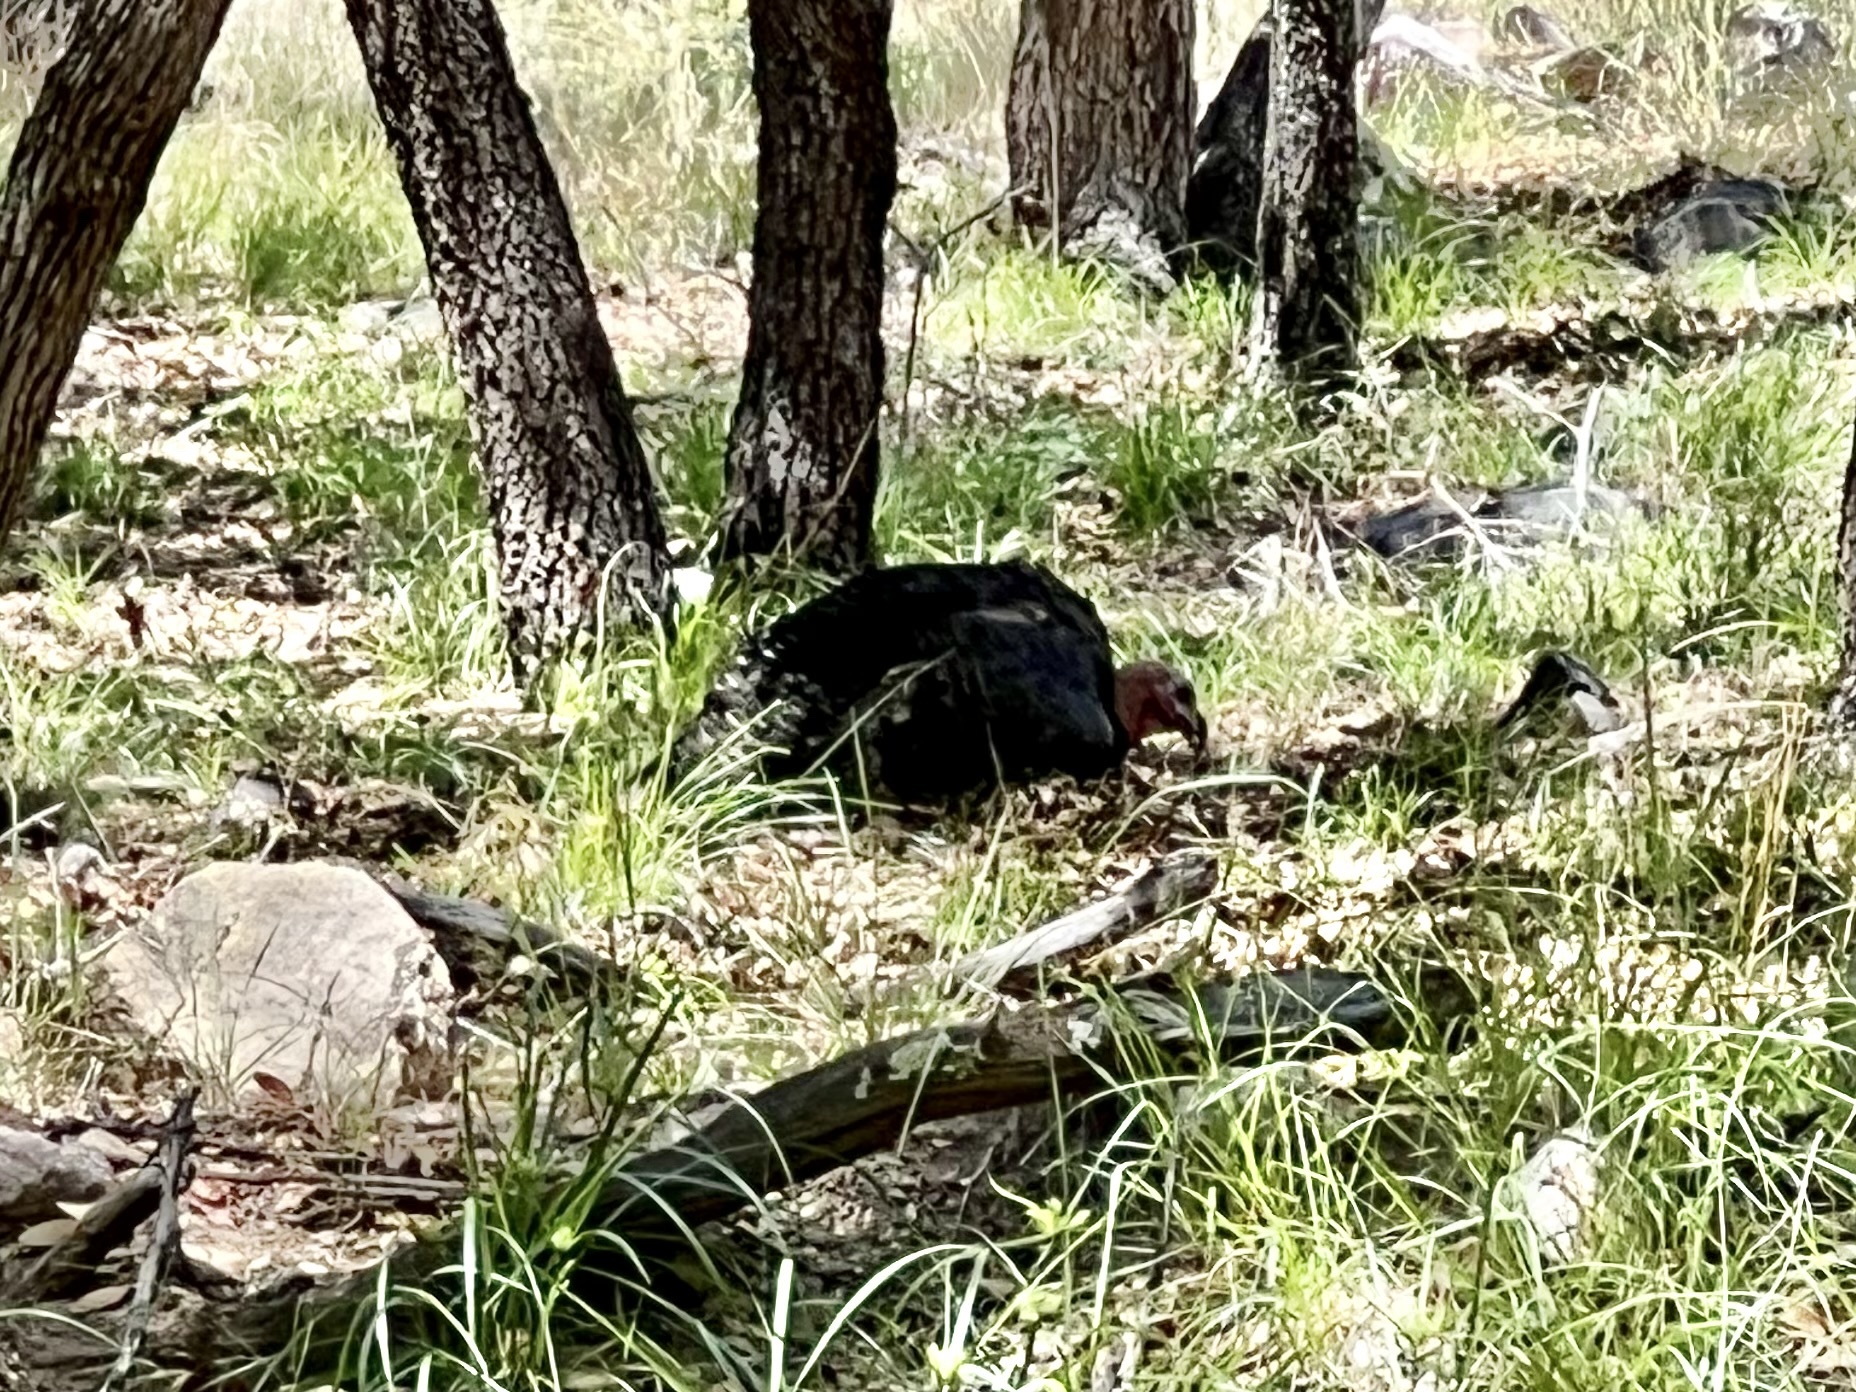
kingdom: Animalia
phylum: Chordata
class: Aves
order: Galliformes
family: Phasianidae
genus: Meleagris
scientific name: Meleagris gallopavo
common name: Wild turkey
